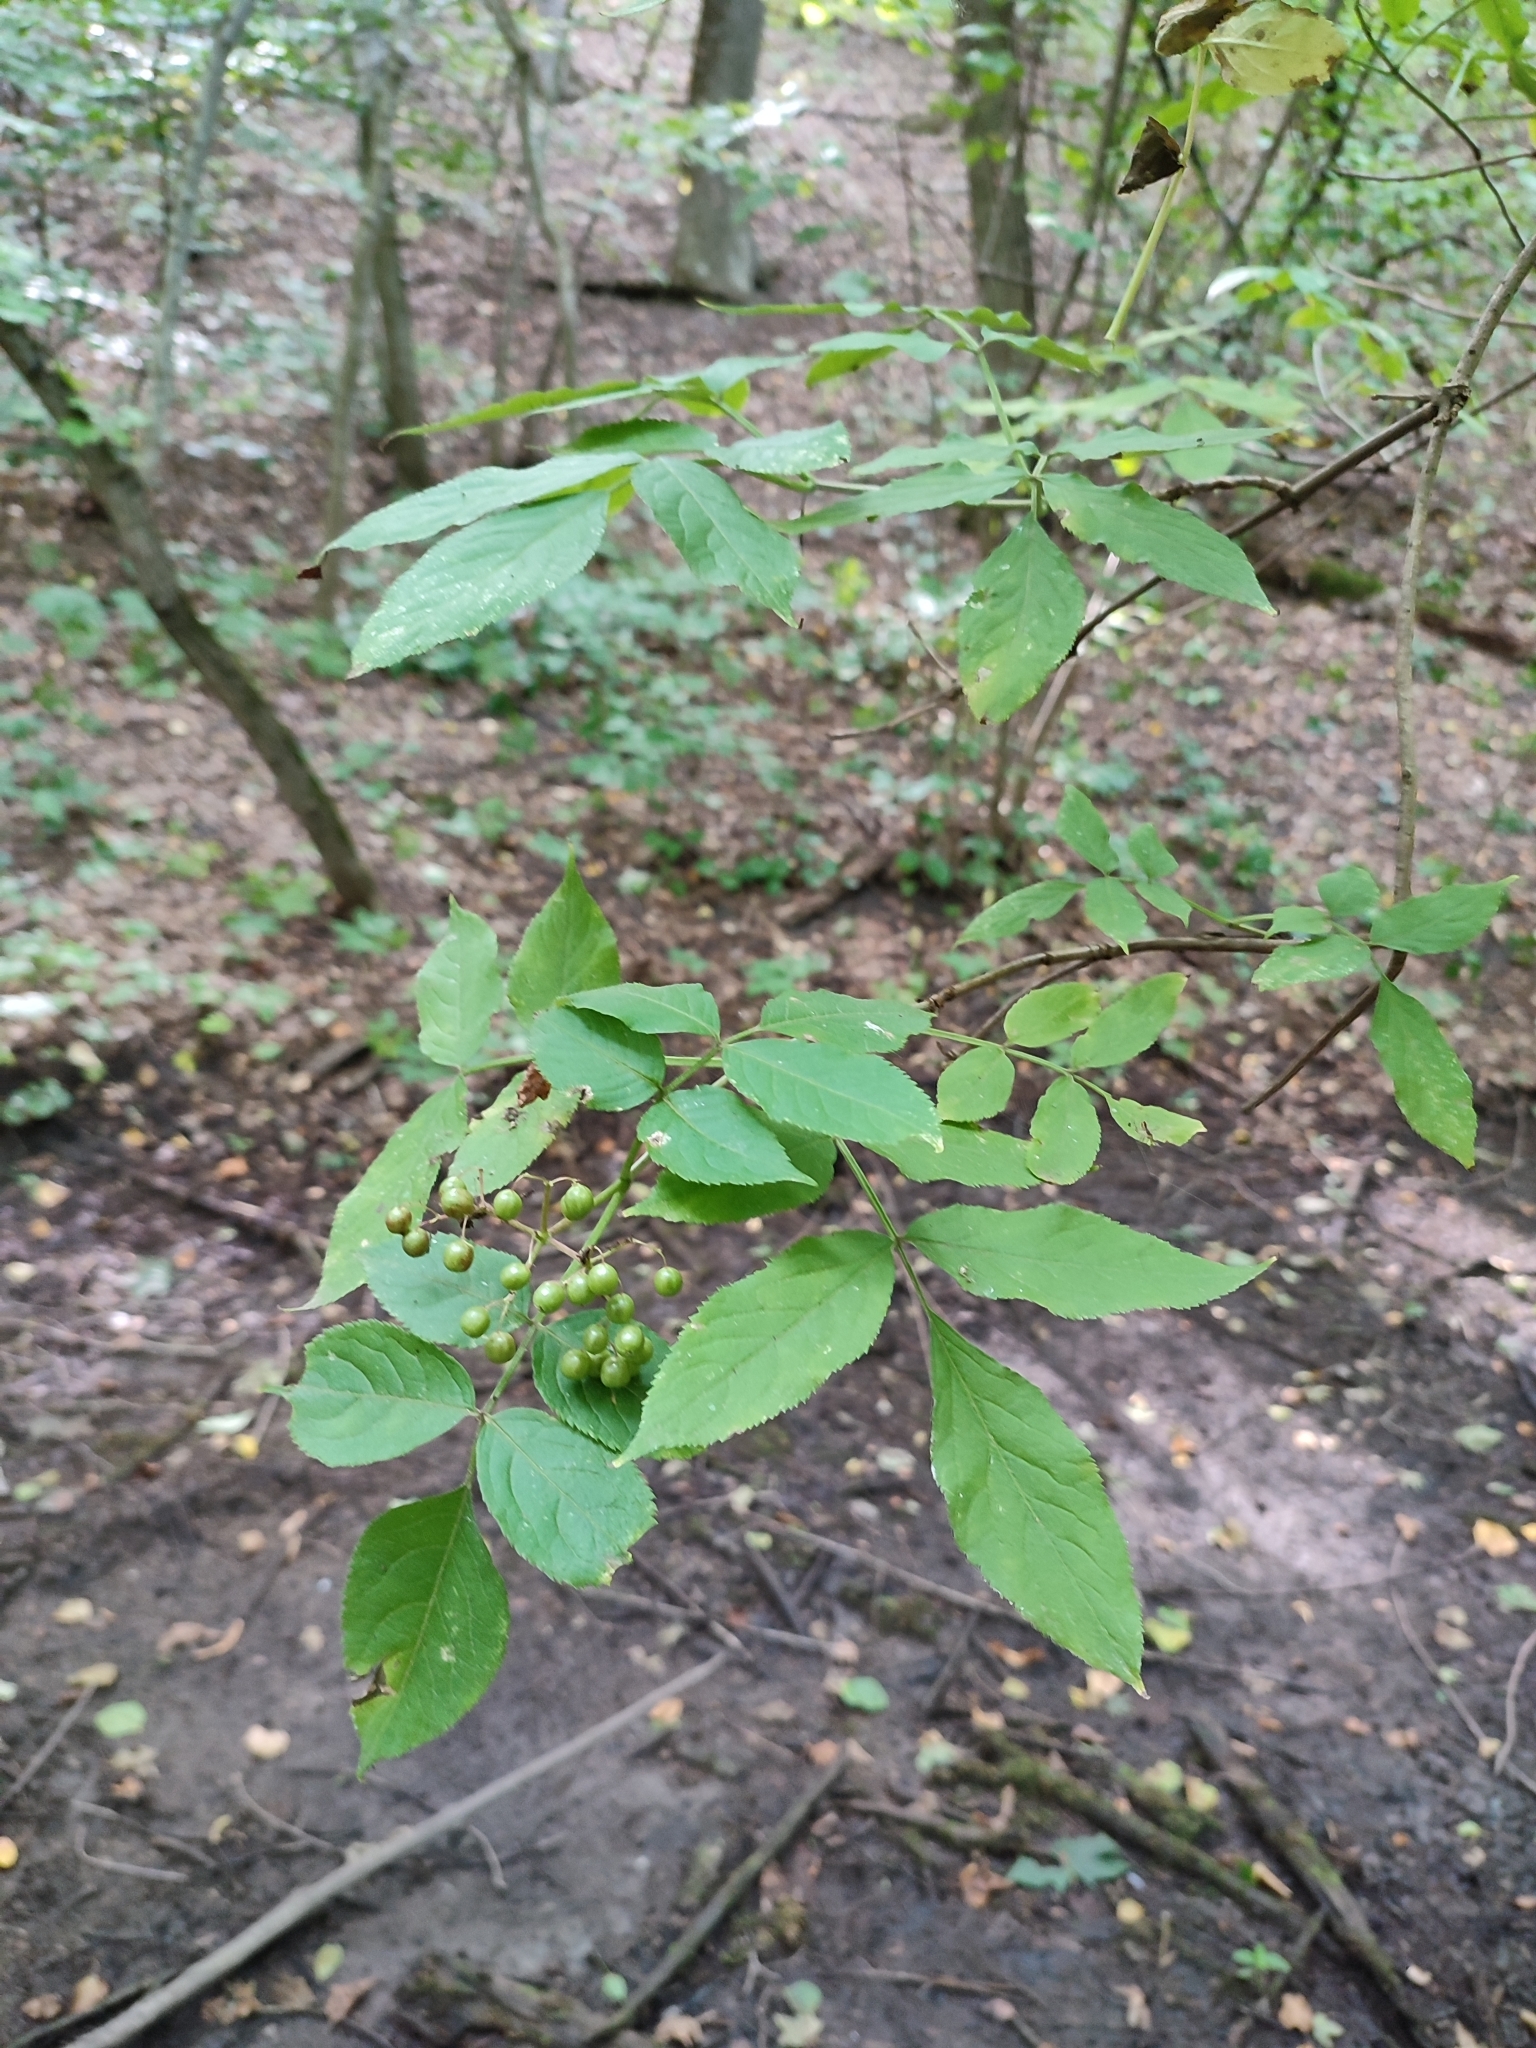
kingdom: Plantae
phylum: Tracheophyta
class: Magnoliopsida
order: Dipsacales
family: Viburnaceae
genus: Sambucus
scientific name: Sambucus nigra
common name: Elder
